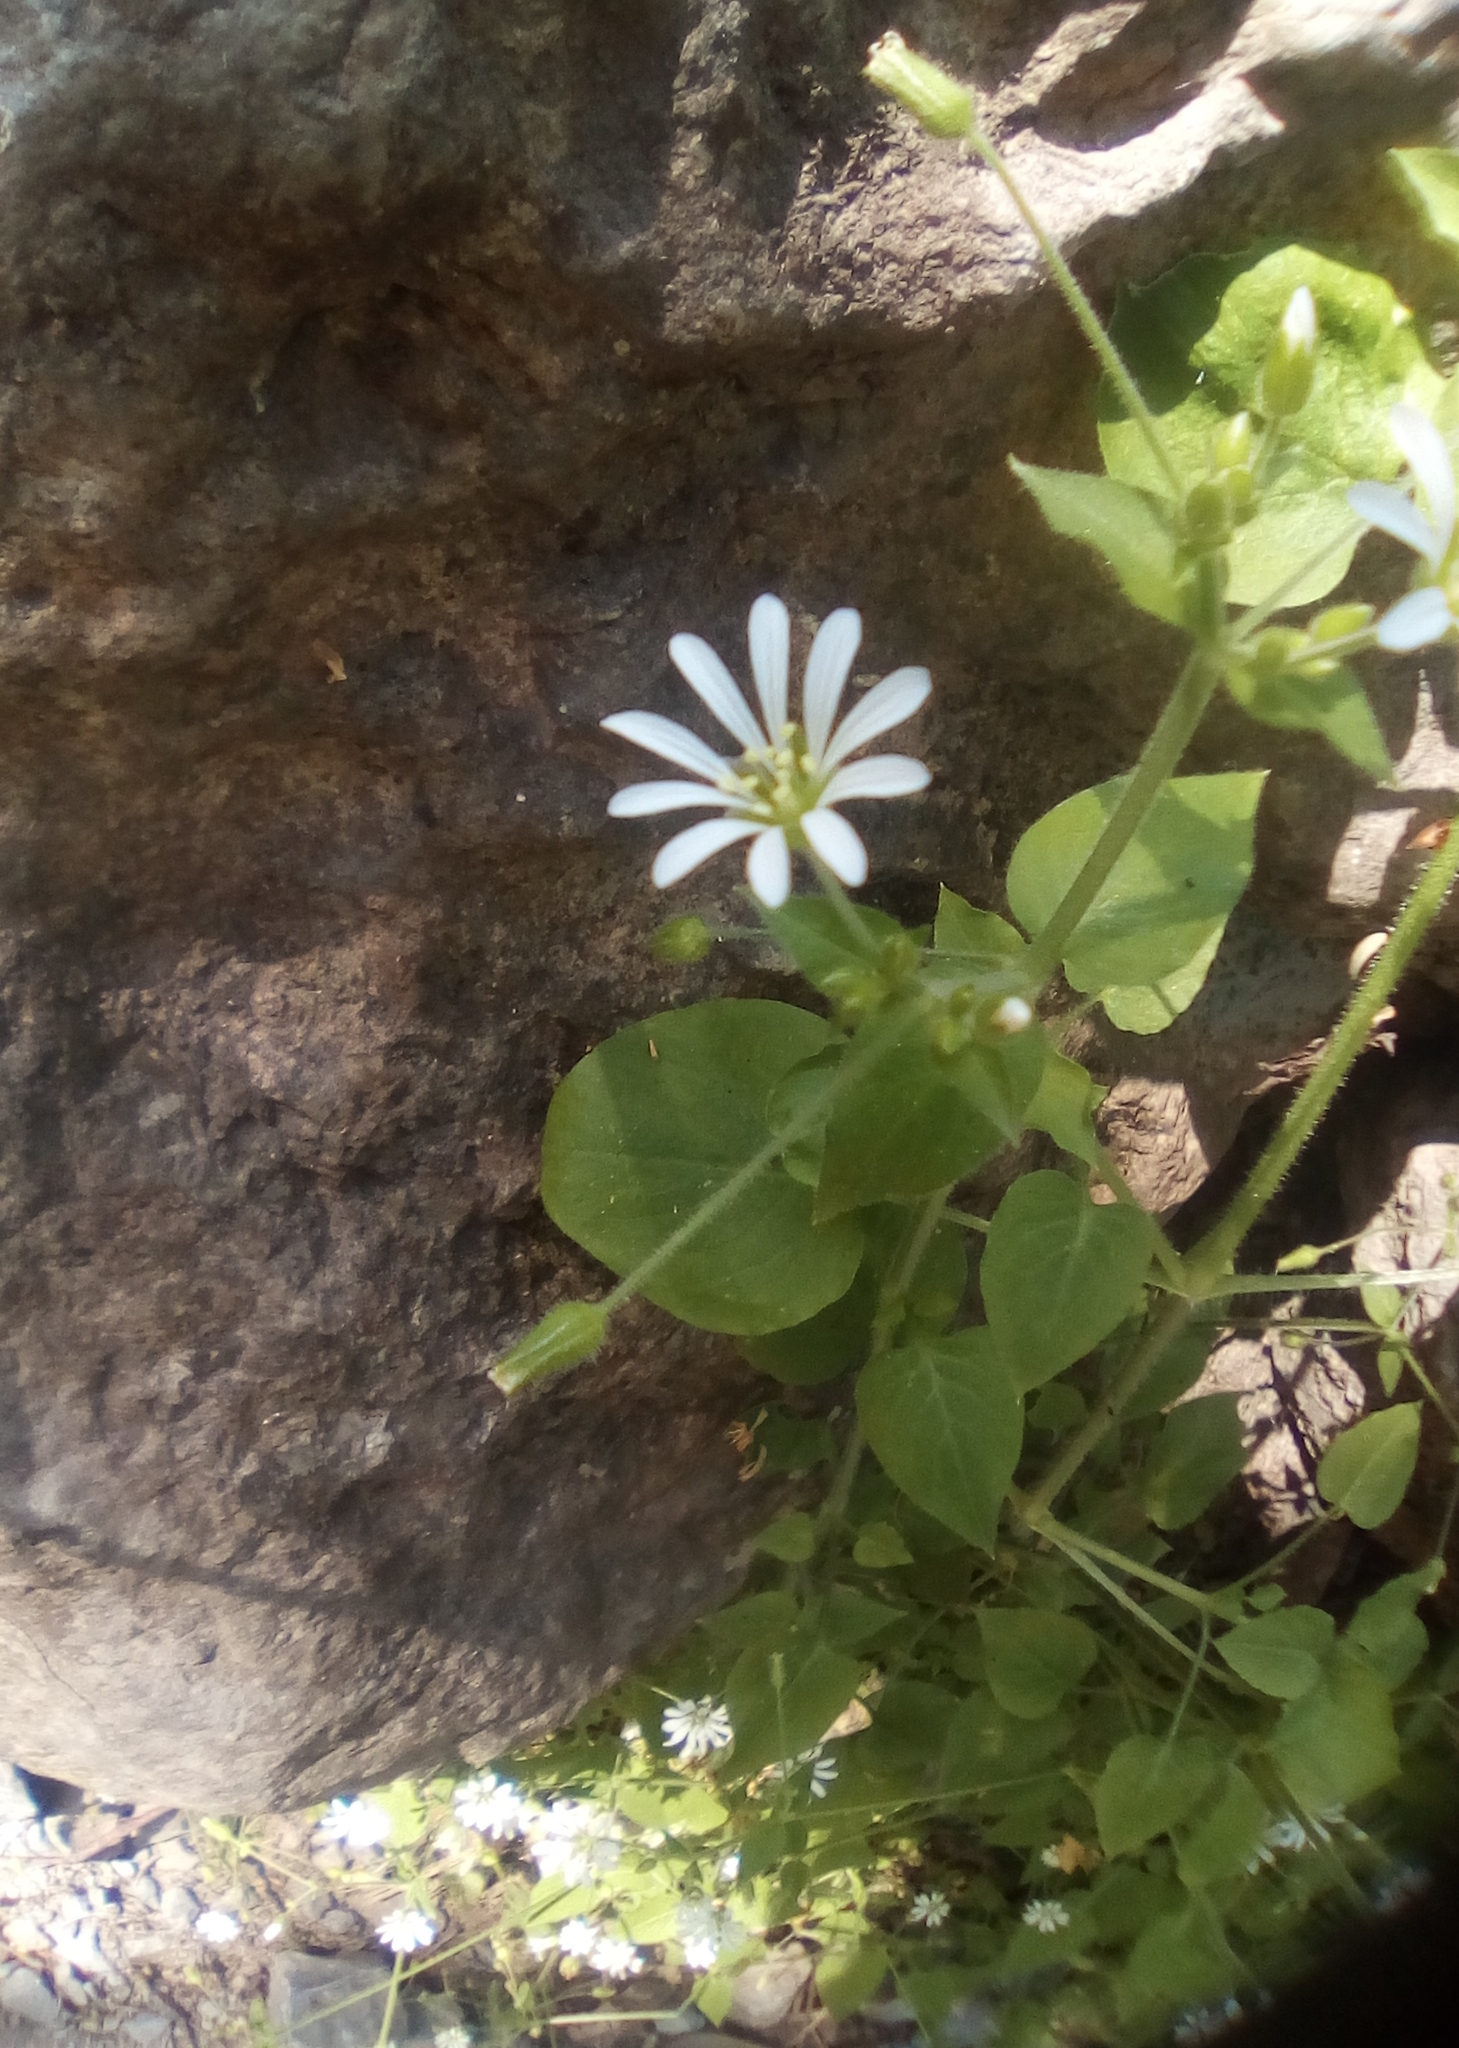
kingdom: Plantae
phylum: Tracheophyta
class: Magnoliopsida
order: Caryophyllales
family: Caryophyllaceae
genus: Stellaria
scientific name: Stellaria cuspidata
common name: Mexican chickweed
